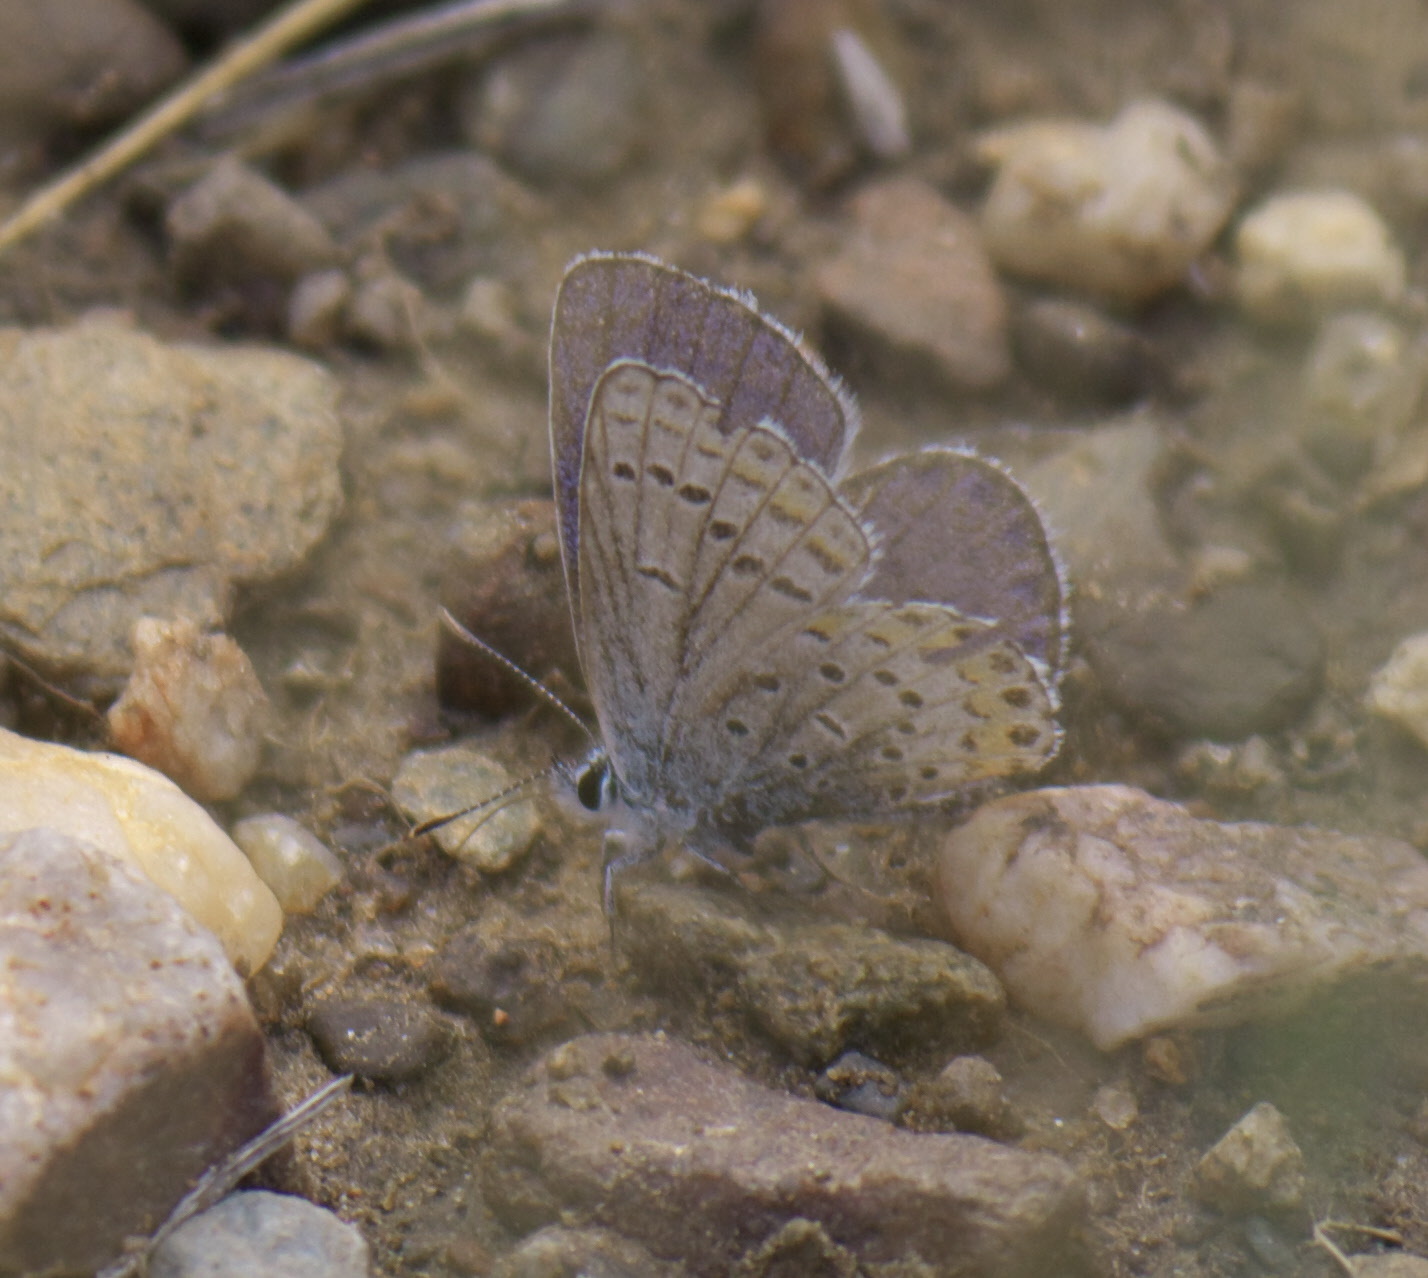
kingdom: Animalia
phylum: Arthropoda
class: Insecta
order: Lepidoptera
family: Lycaenidae
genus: Lycaeides
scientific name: Lycaeides melissa
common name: Melissa blue
